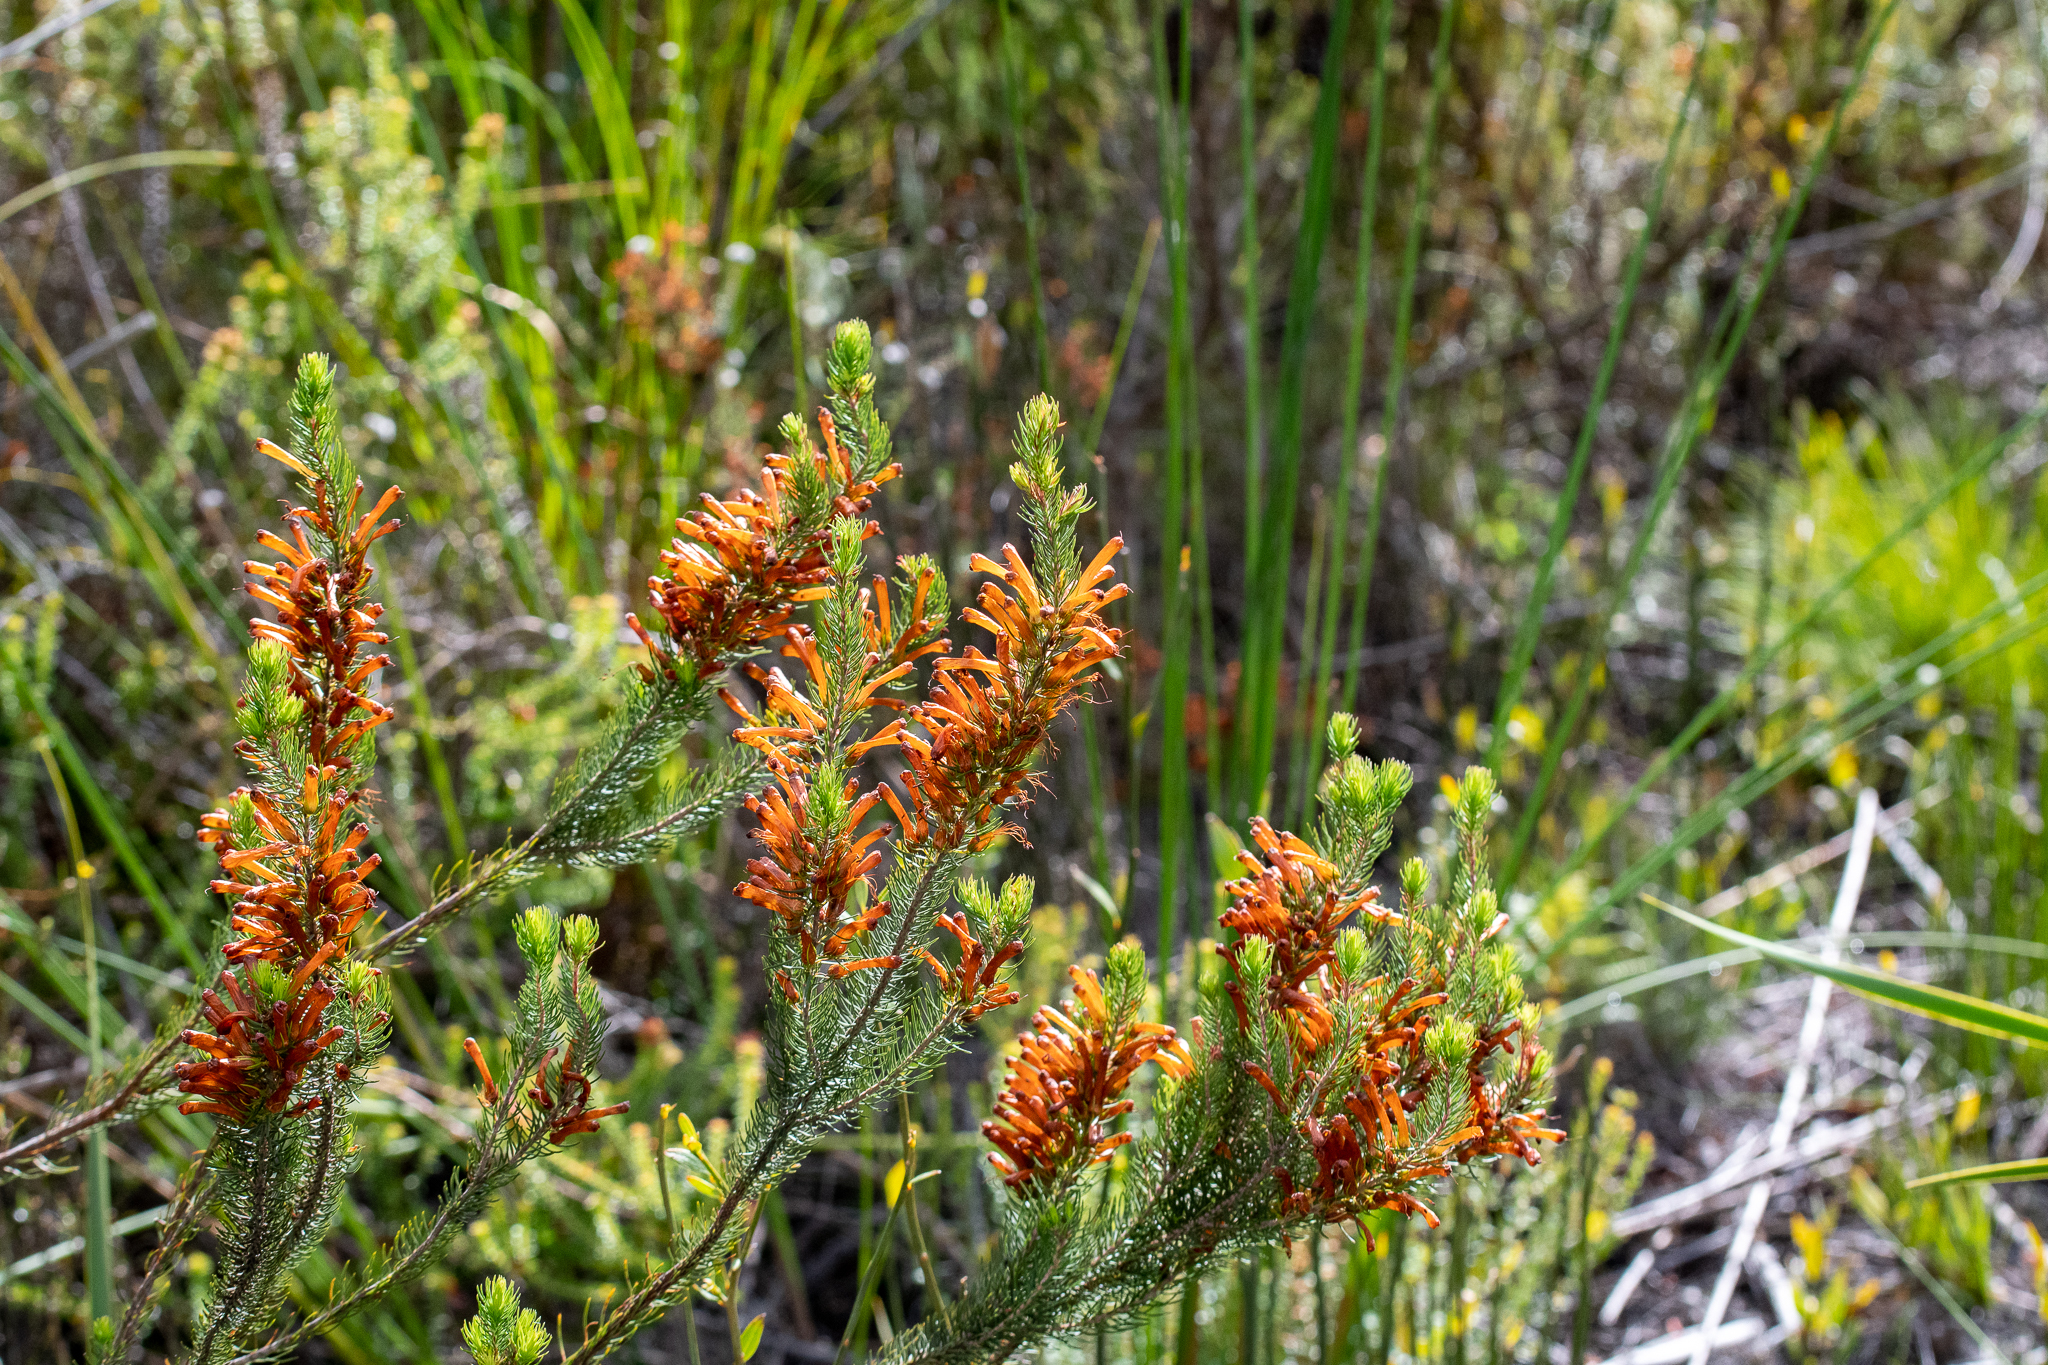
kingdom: Plantae
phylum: Tracheophyta
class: Magnoliopsida
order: Ericales
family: Ericaceae
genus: Erica
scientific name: Erica pinea
